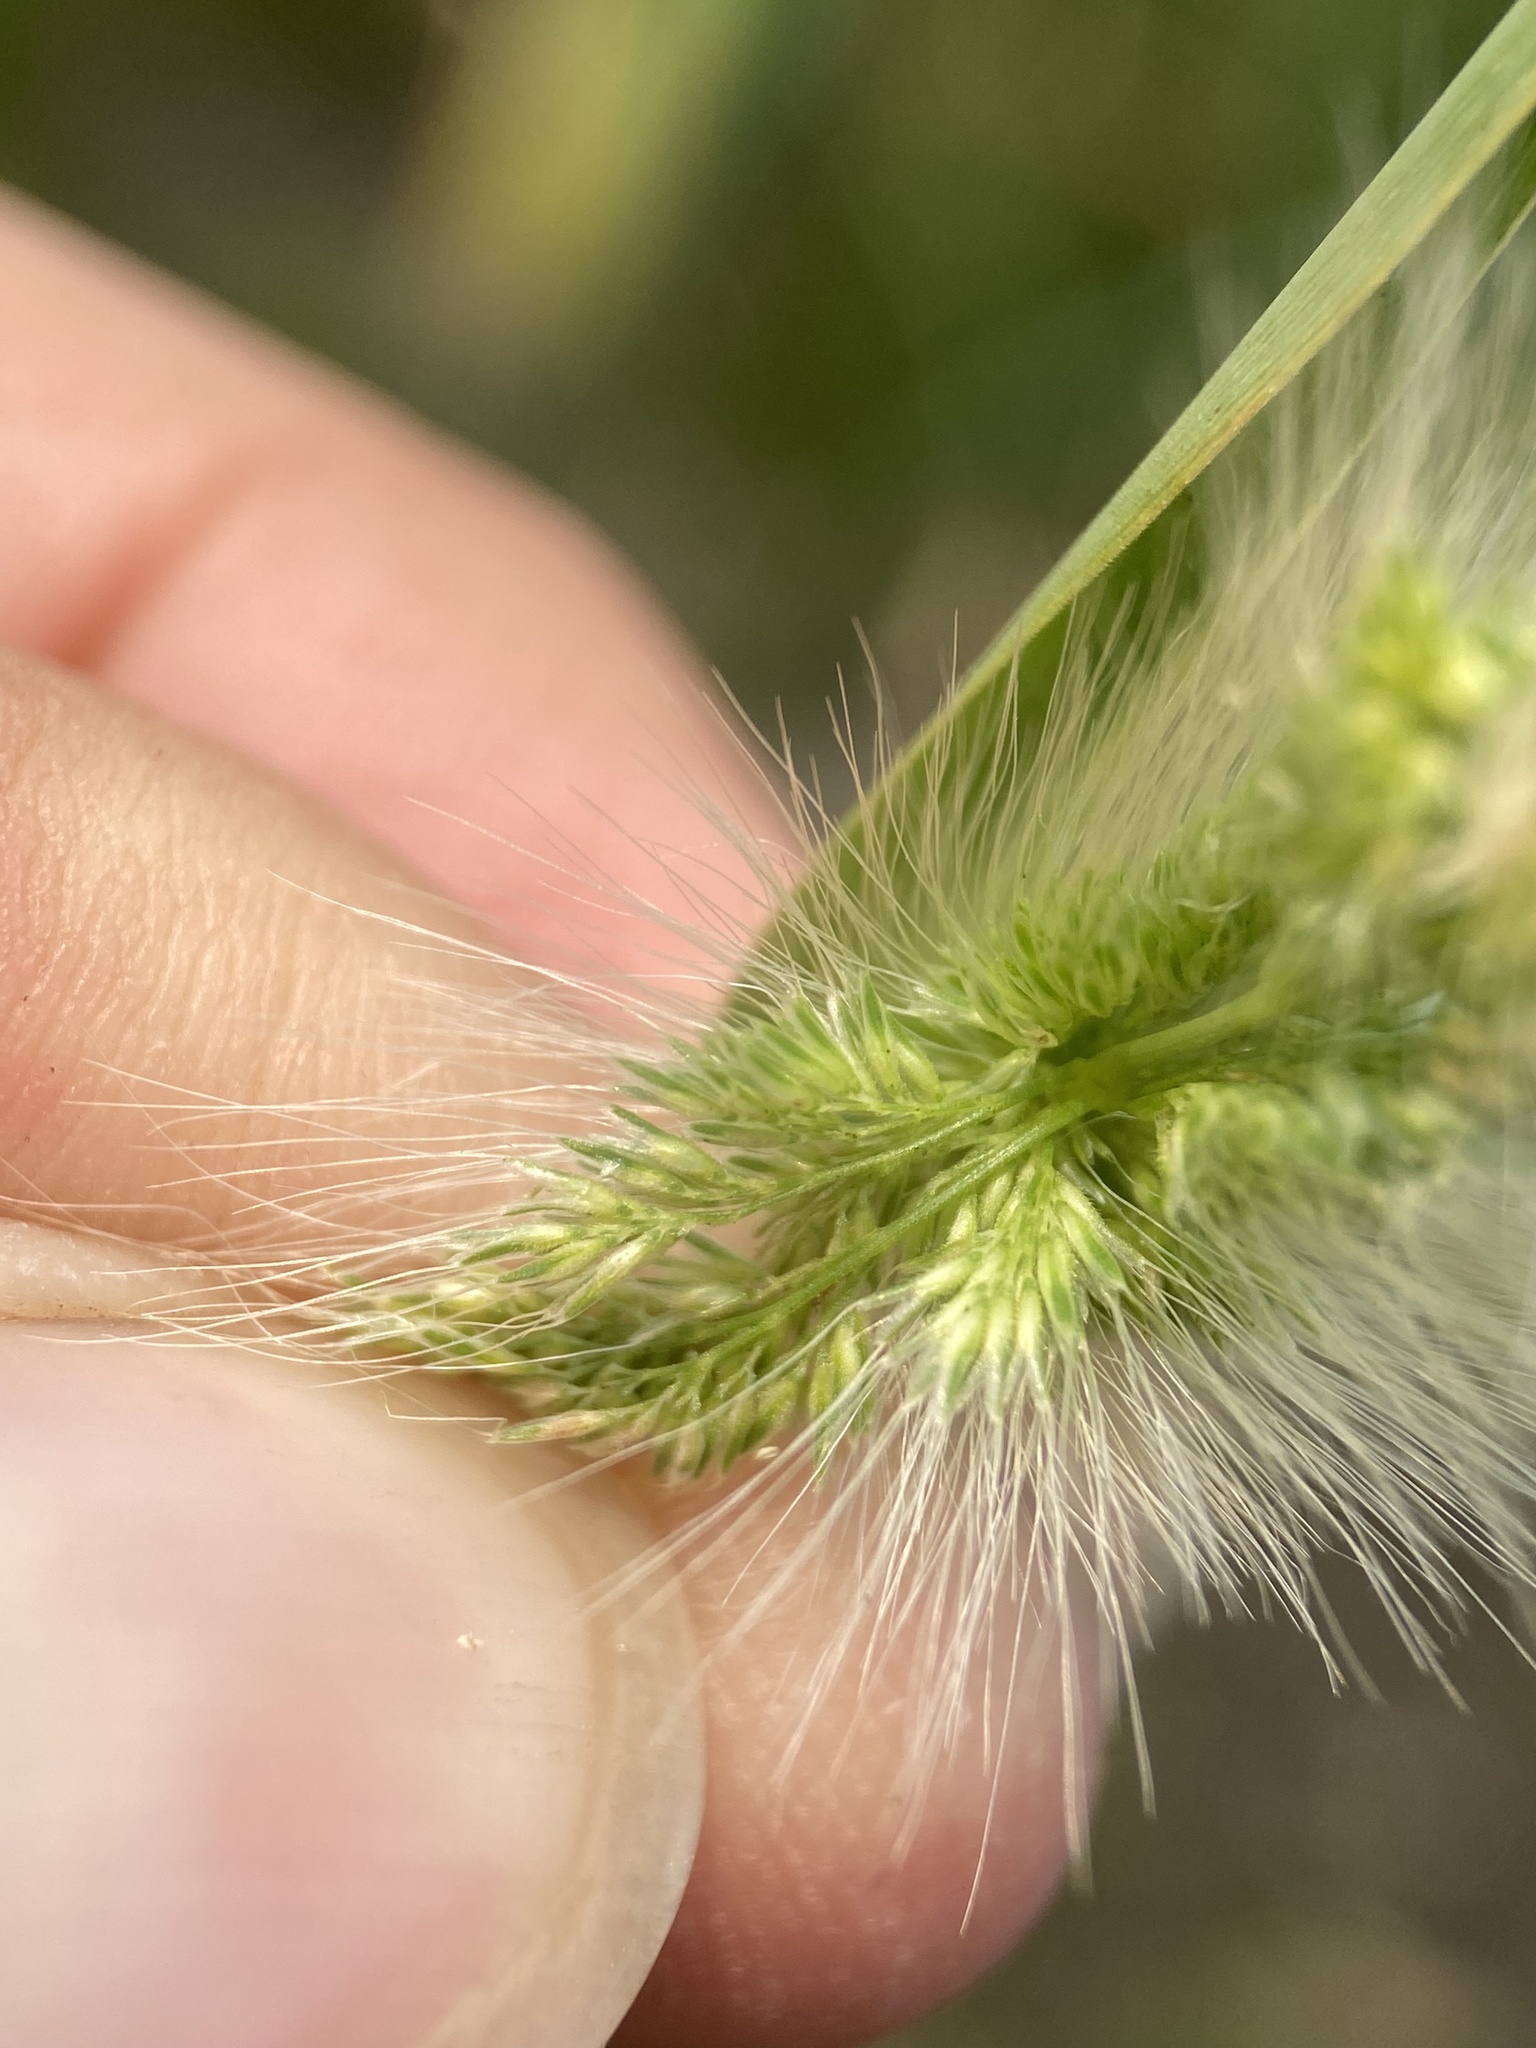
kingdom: Plantae
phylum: Tracheophyta
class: Liliopsida
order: Poales
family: Poaceae
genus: Polypogon
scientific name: Polypogon monspeliensis
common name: Annual rabbitsfoot grass
